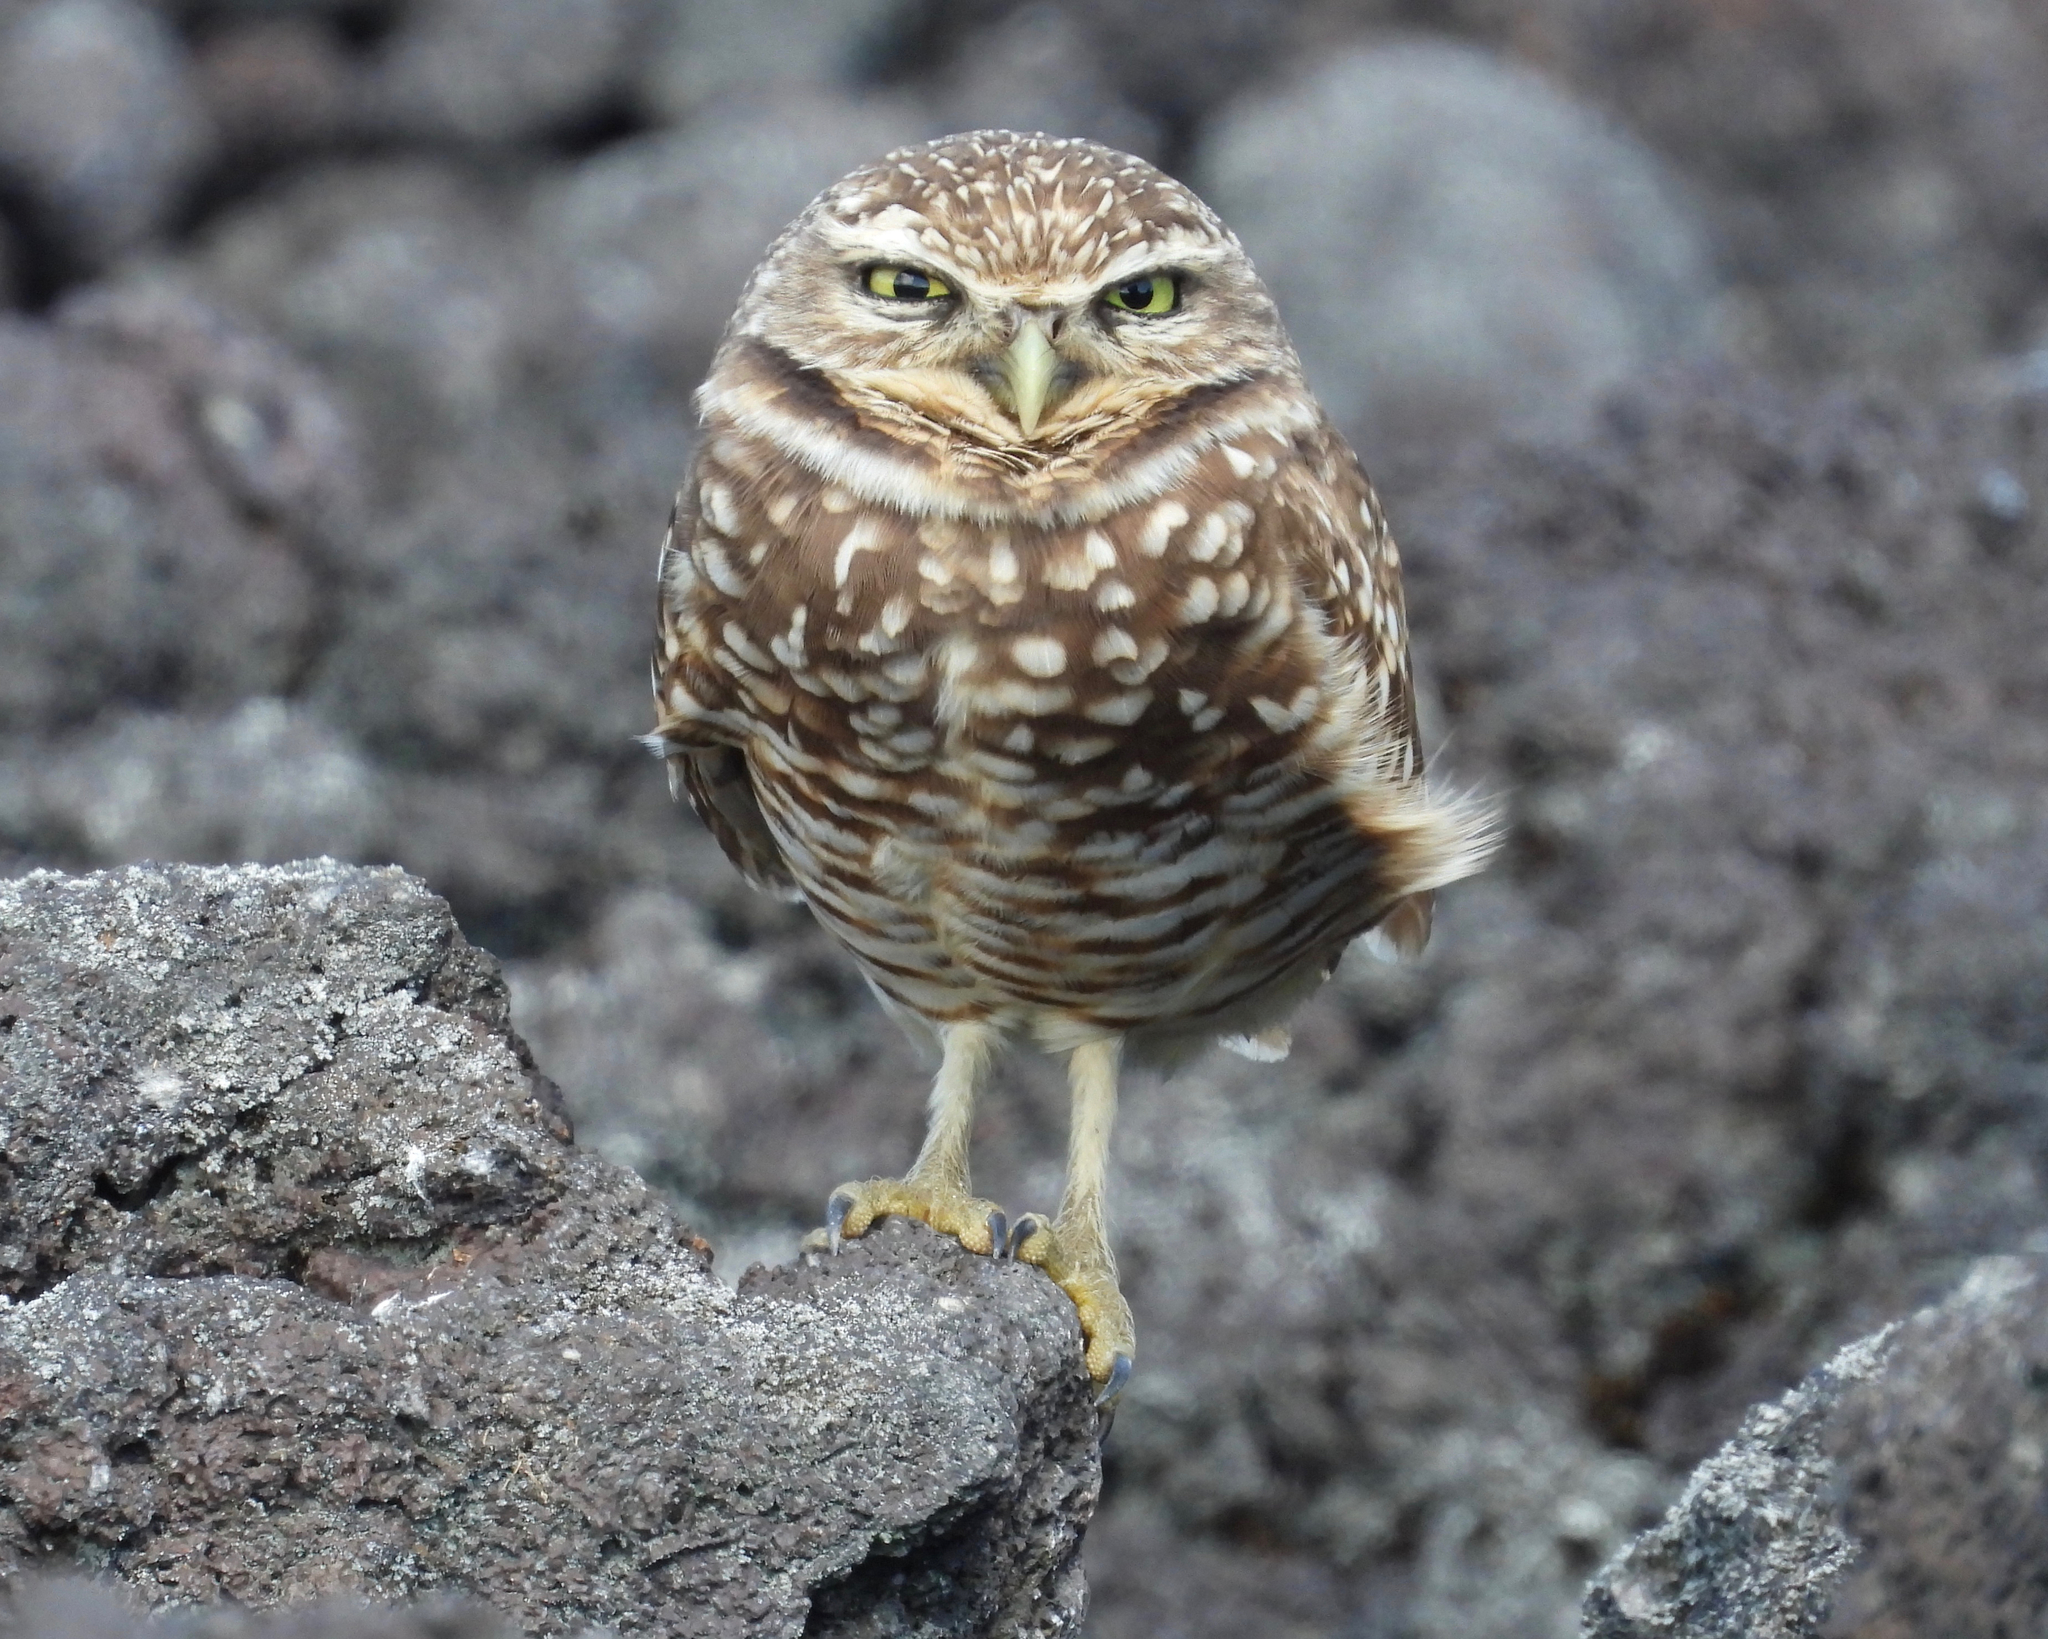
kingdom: Animalia
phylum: Chordata
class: Aves
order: Strigiformes
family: Strigidae
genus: Athene
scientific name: Athene cunicularia
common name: Burrowing owl
